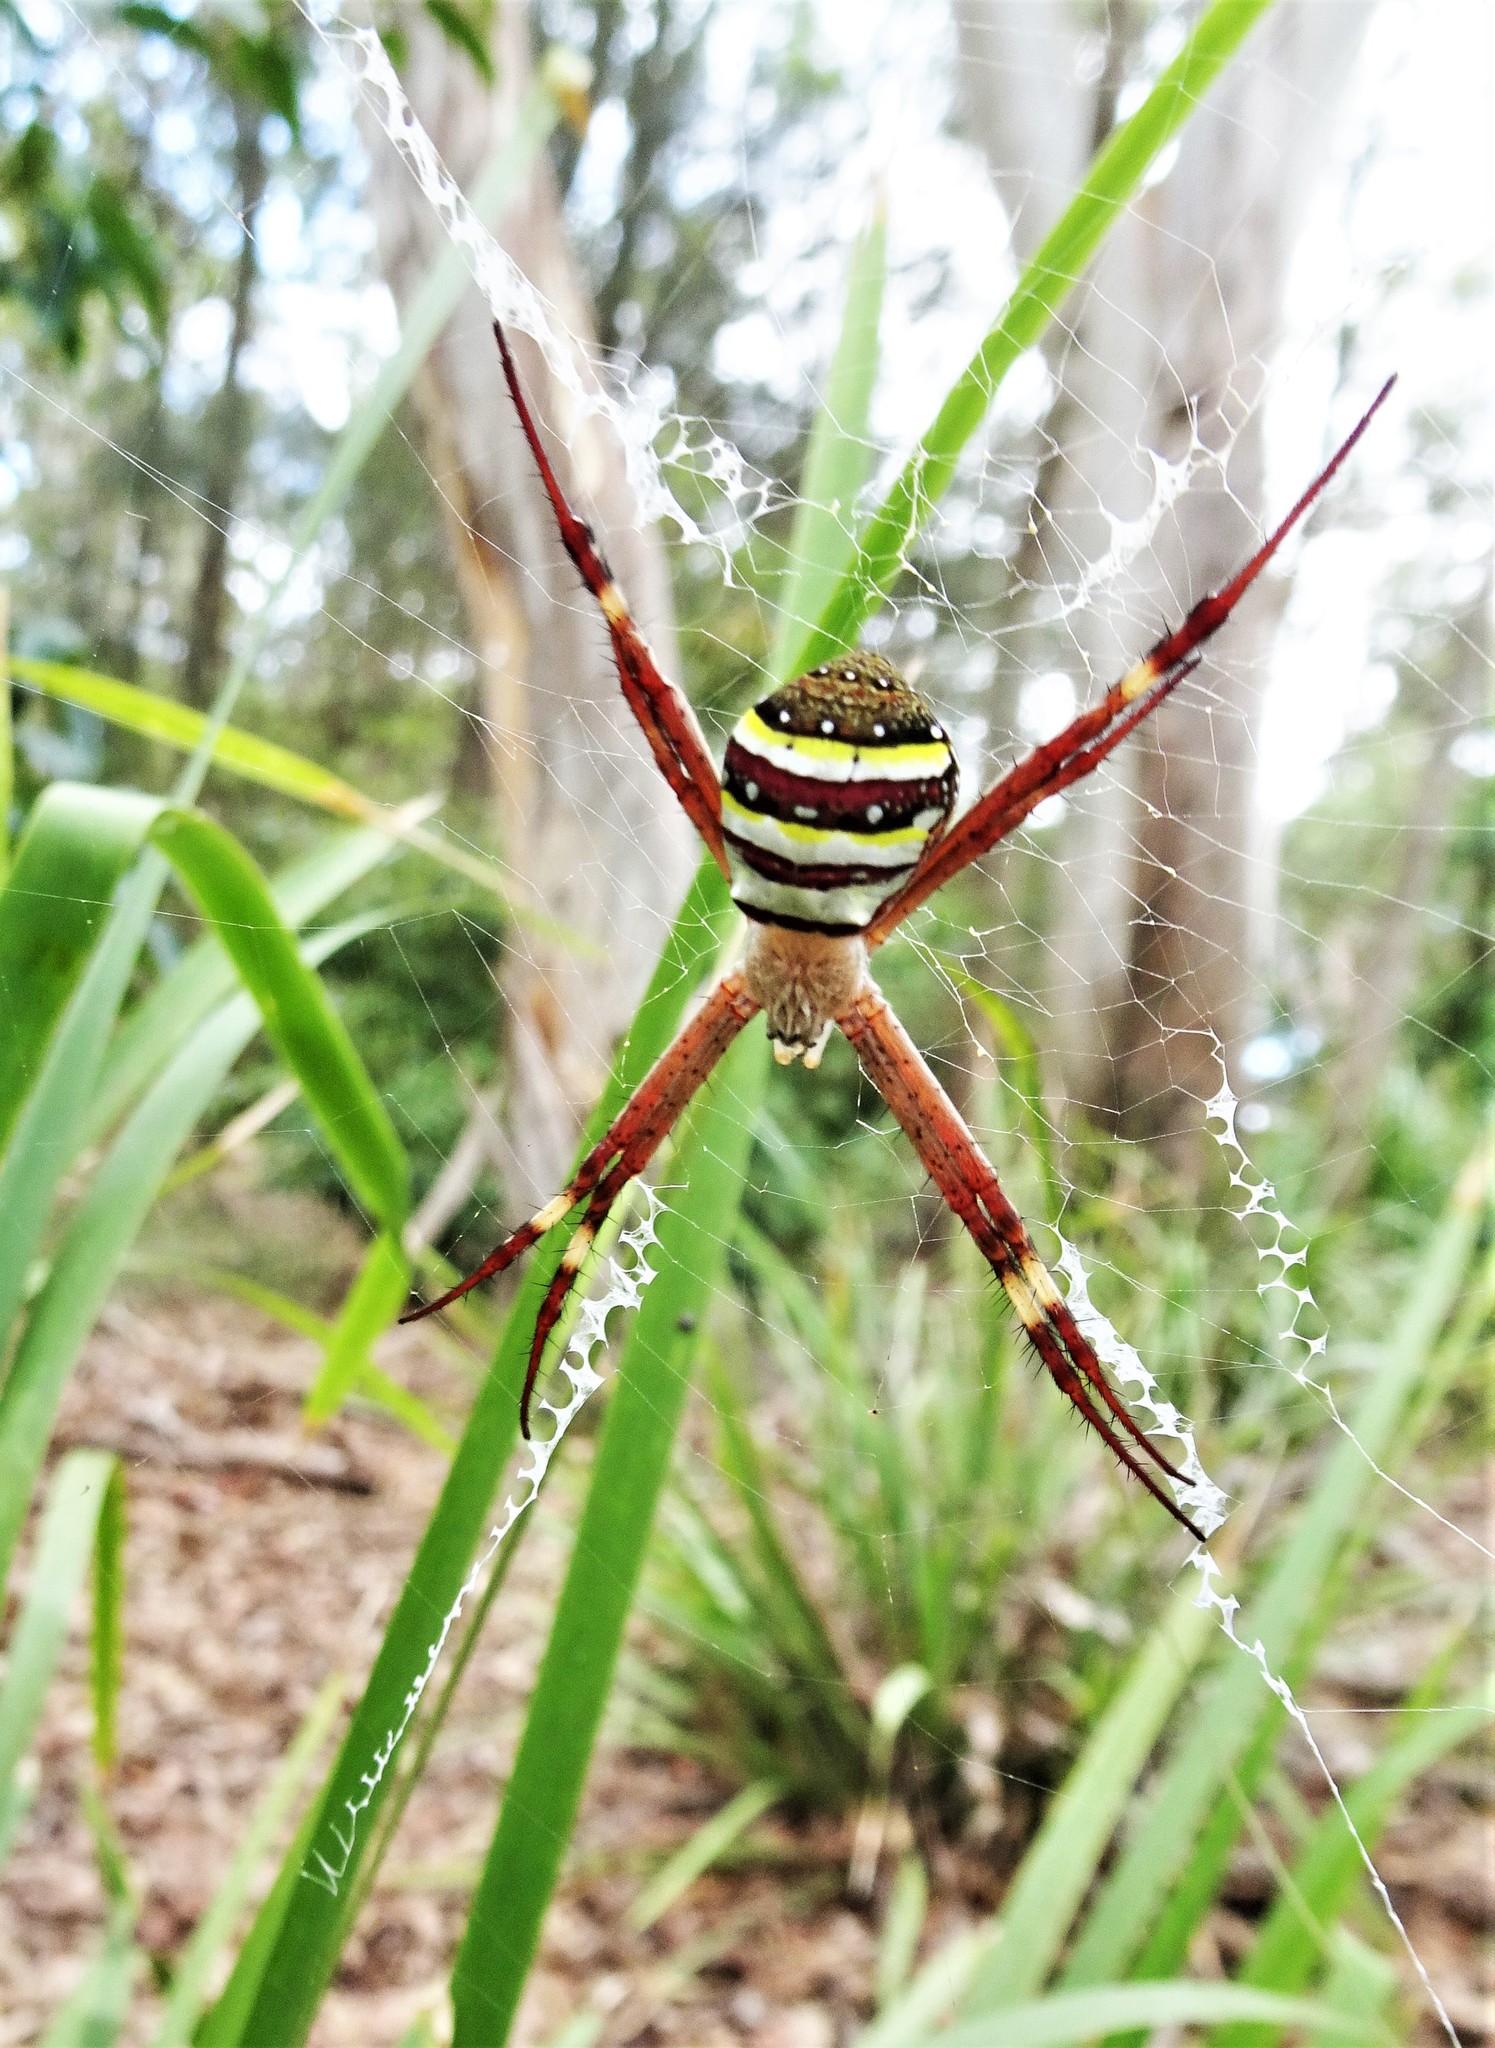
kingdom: Animalia
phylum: Arthropoda
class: Arachnida
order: Araneae
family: Araneidae
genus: Argiope
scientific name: Argiope keyserlingi
